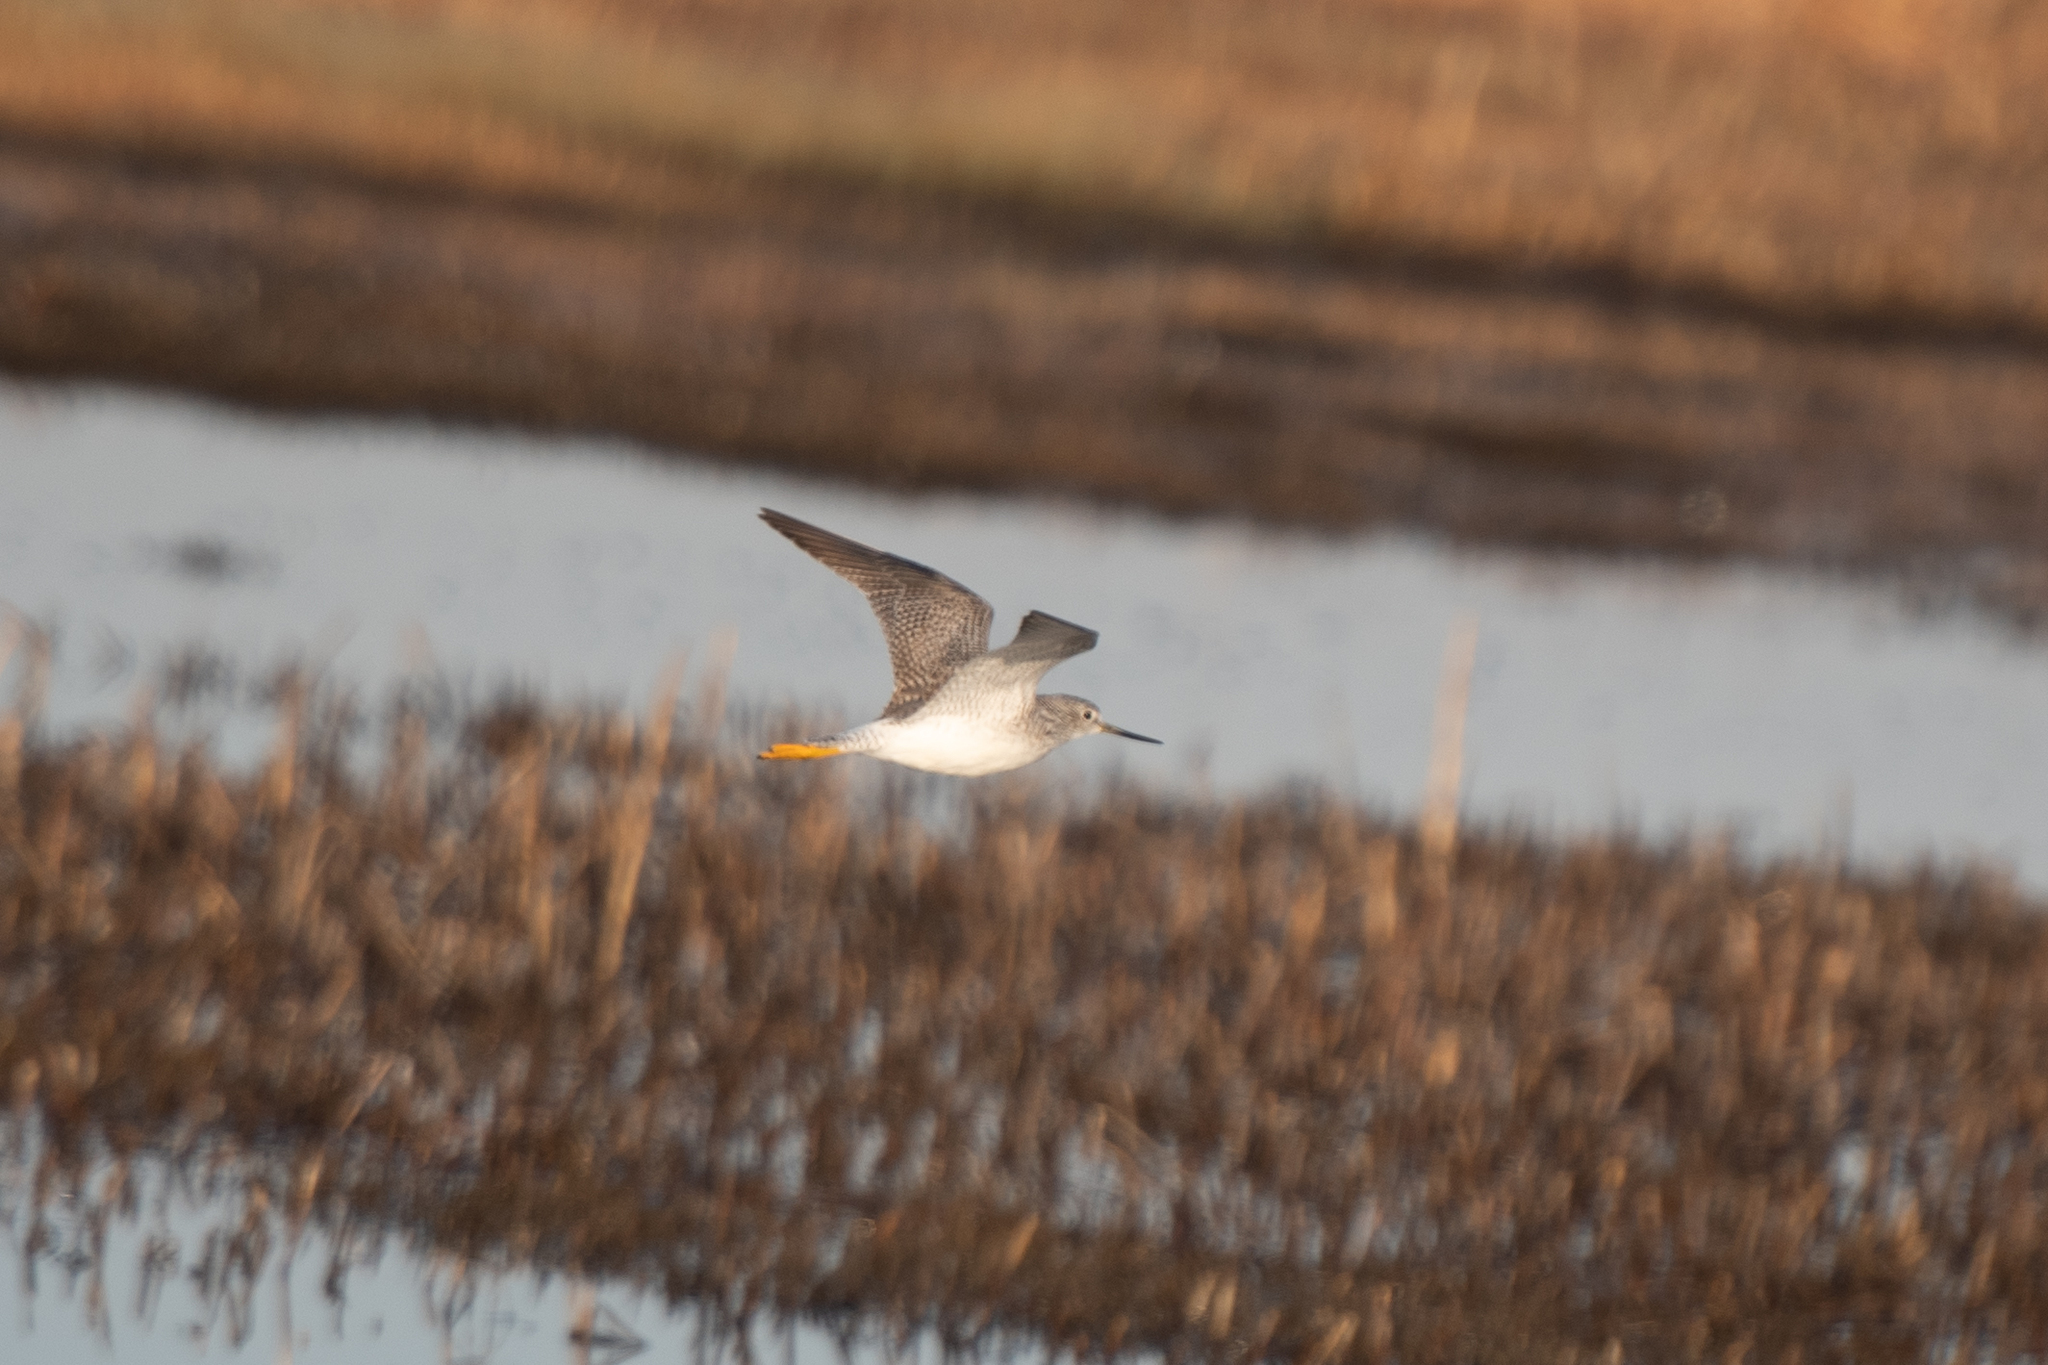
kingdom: Animalia
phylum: Chordata
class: Aves
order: Charadriiformes
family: Scolopacidae
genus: Tringa
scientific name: Tringa melanoleuca
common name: Greater yellowlegs
